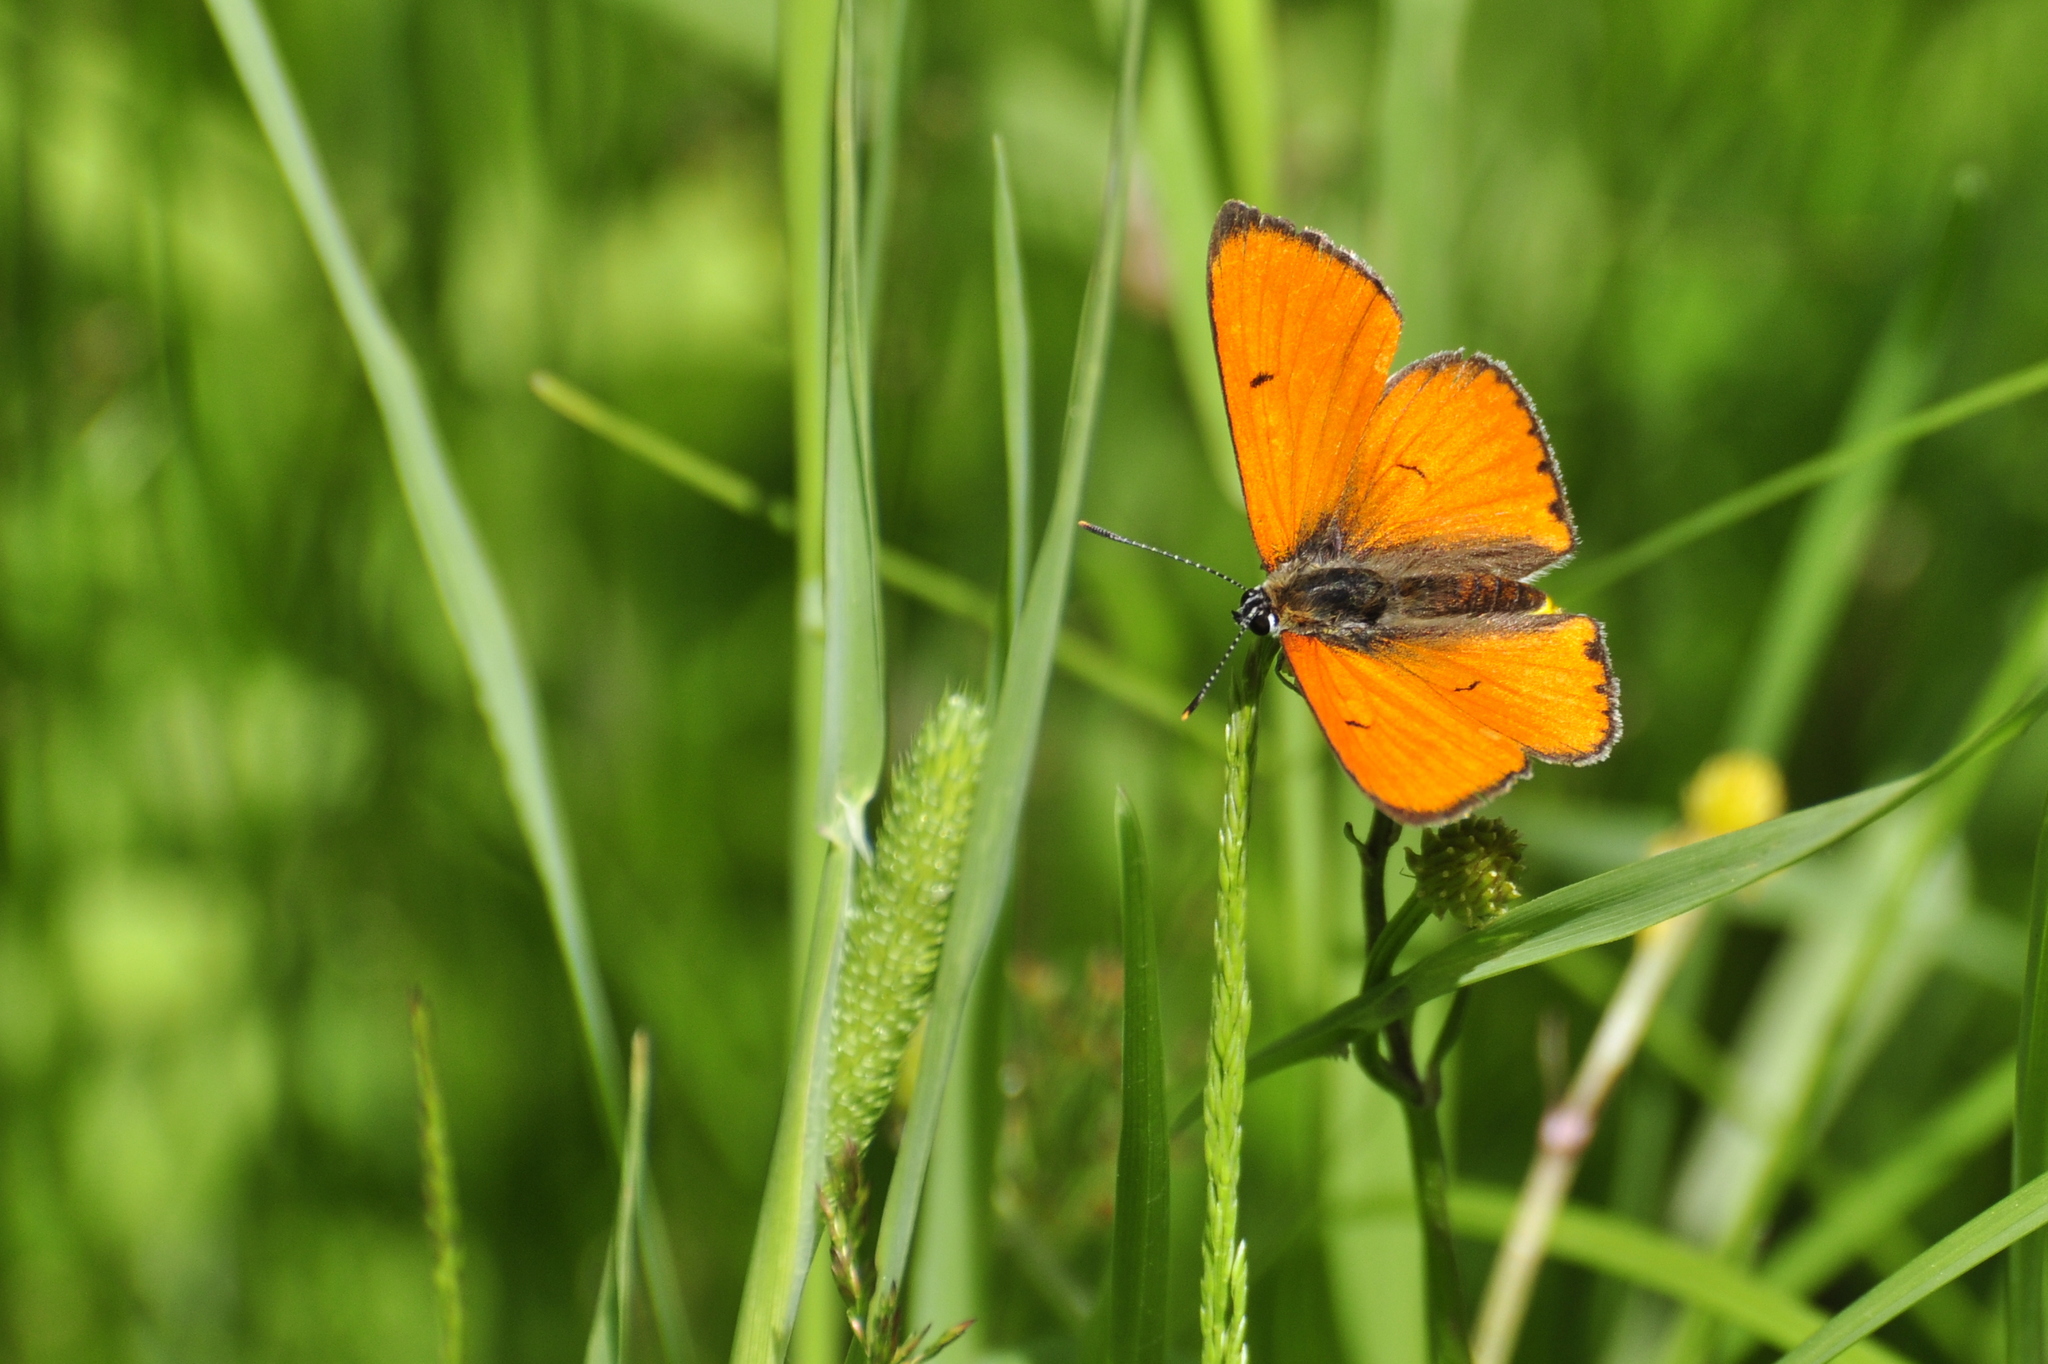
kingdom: Animalia
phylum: Arthropoda
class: Insecta
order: Lepidoptera
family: Lycaenidae
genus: Lycaena
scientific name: Lycaena dispar
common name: Large copper
